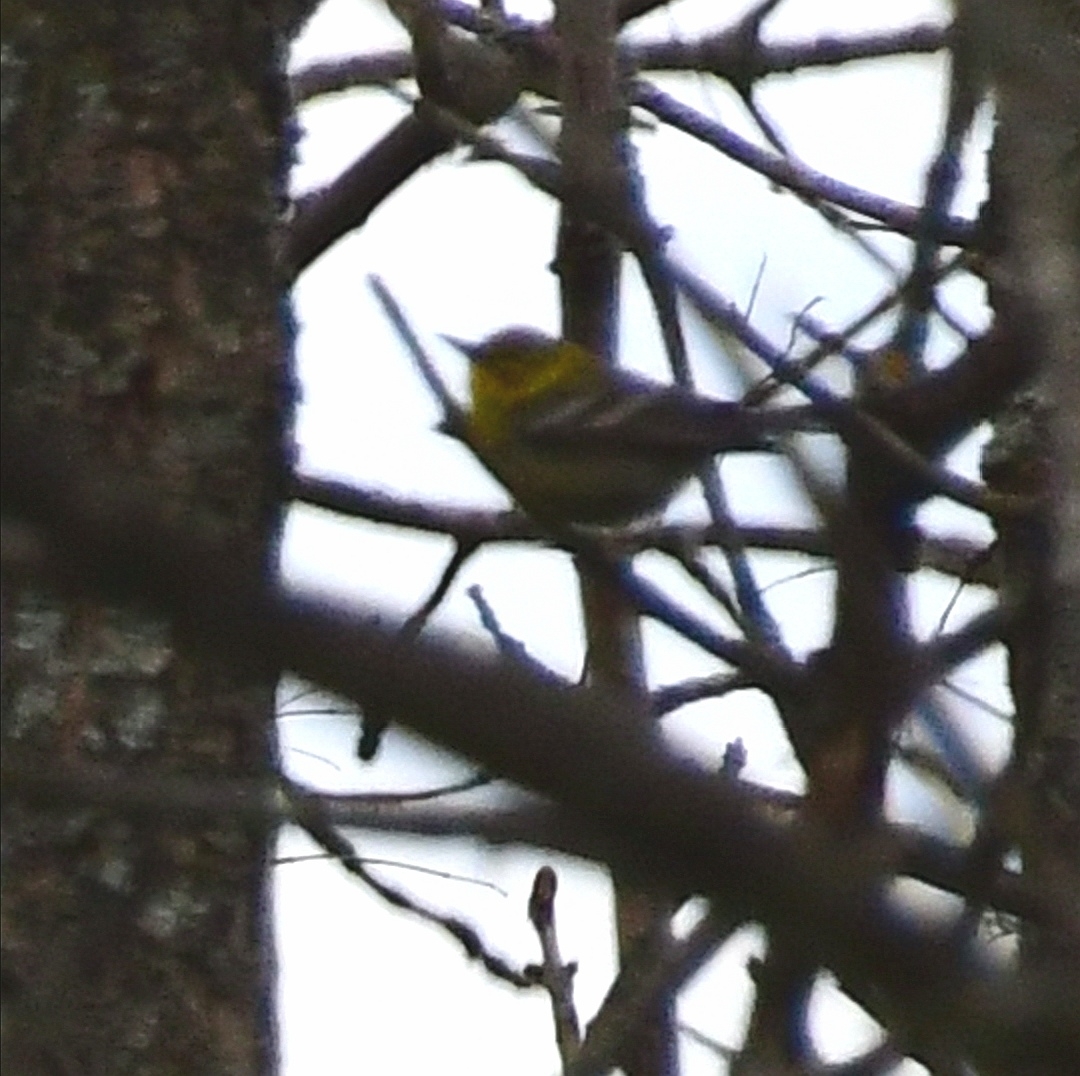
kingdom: Animalia
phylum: Chordata
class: Aves
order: Passeriformes
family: Parulidae
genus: Setophaga
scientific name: Setophaga pinus
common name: Pine warbler
